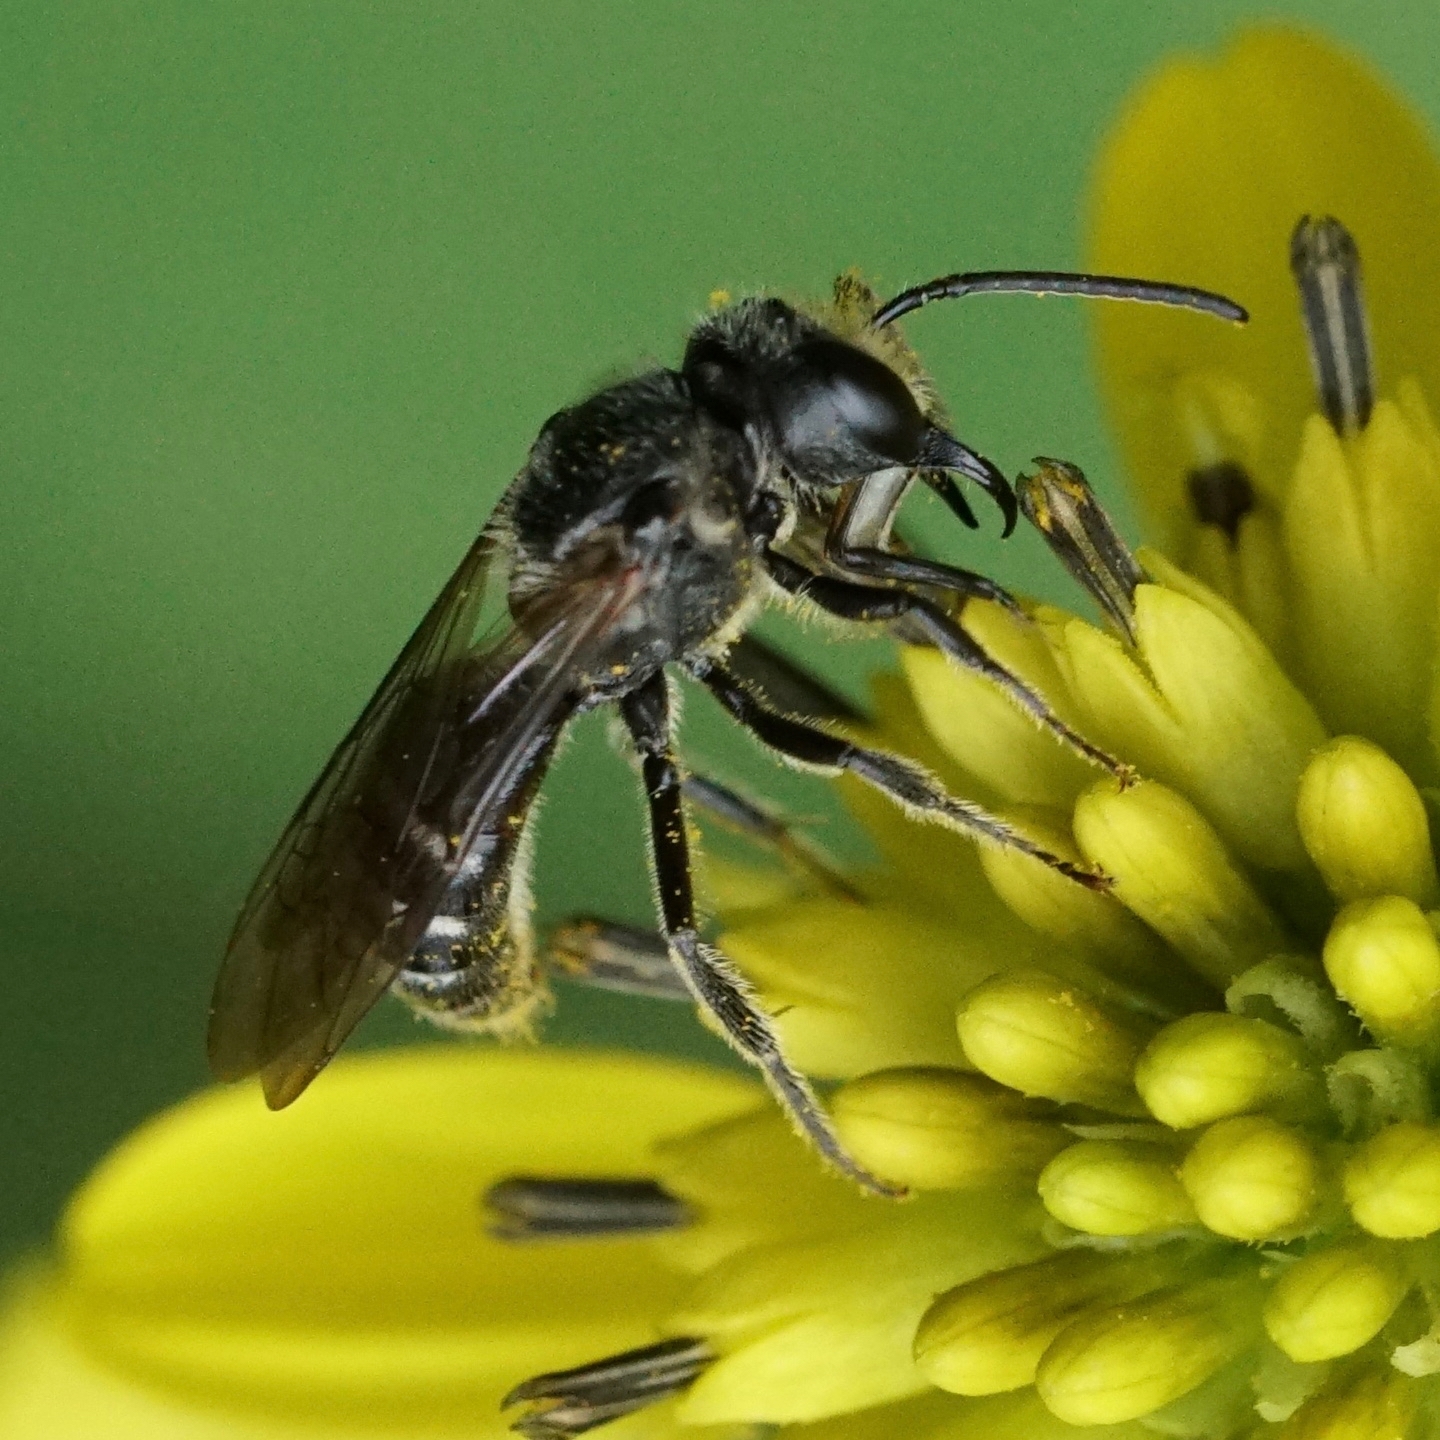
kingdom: Animalia
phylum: Arthropoda
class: Insecta
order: Hymenoptera
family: Halictidae
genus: Lasioglossum
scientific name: Lasioglossum coriaceum
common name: Leathery sweat bee
